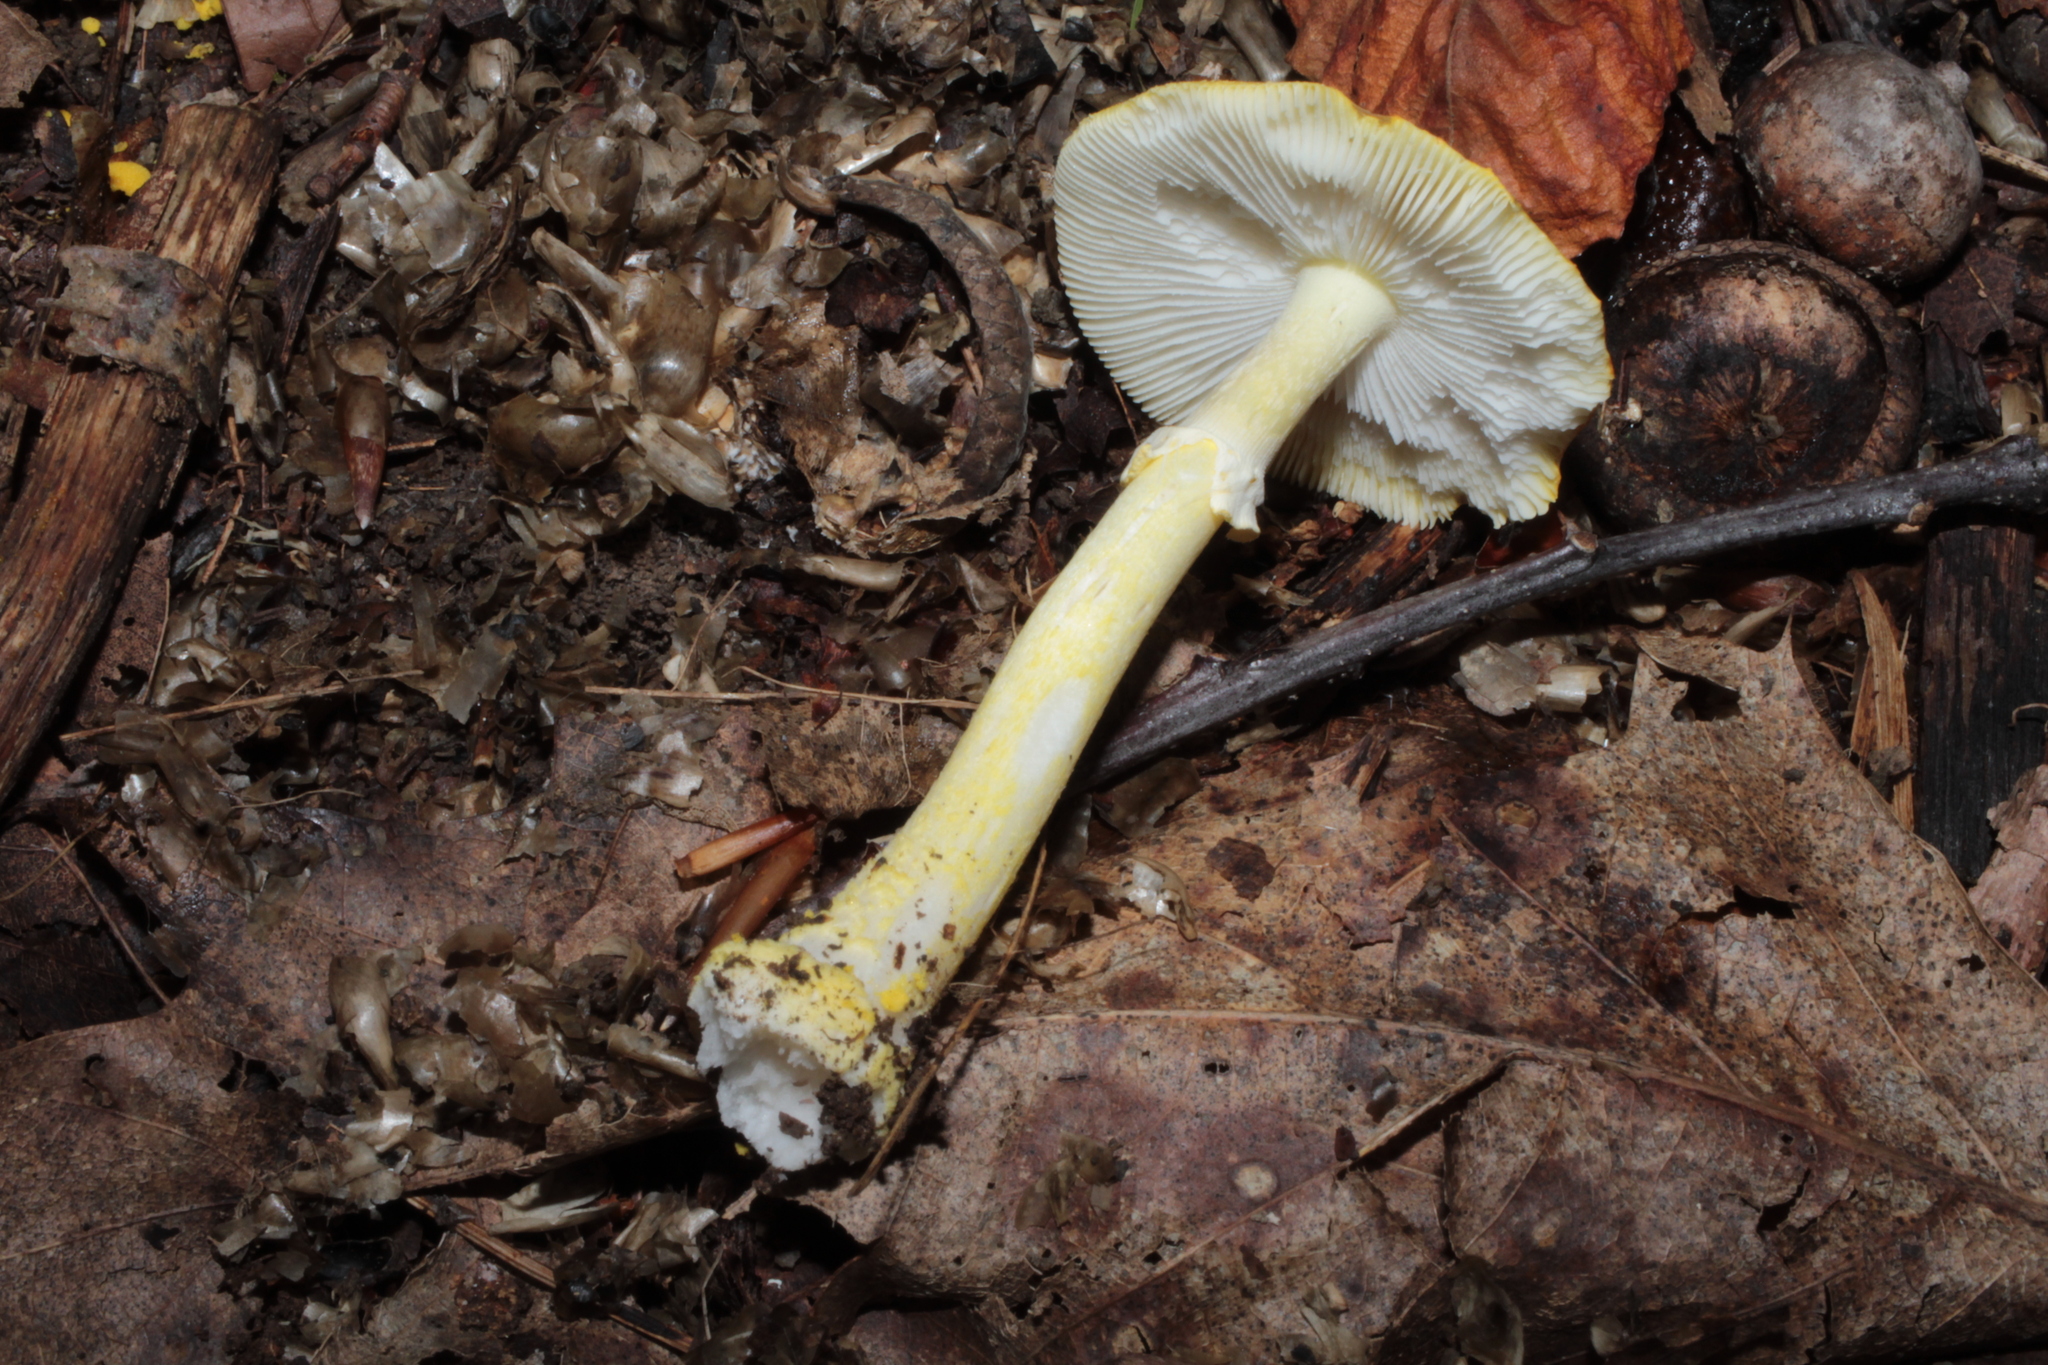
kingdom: Fungi
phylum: Basidiomycota
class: Agaricomycetes
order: Agaricales
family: Amanitaceae
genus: Amanita
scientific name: Amanita flavoconia
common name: Yellow patches
